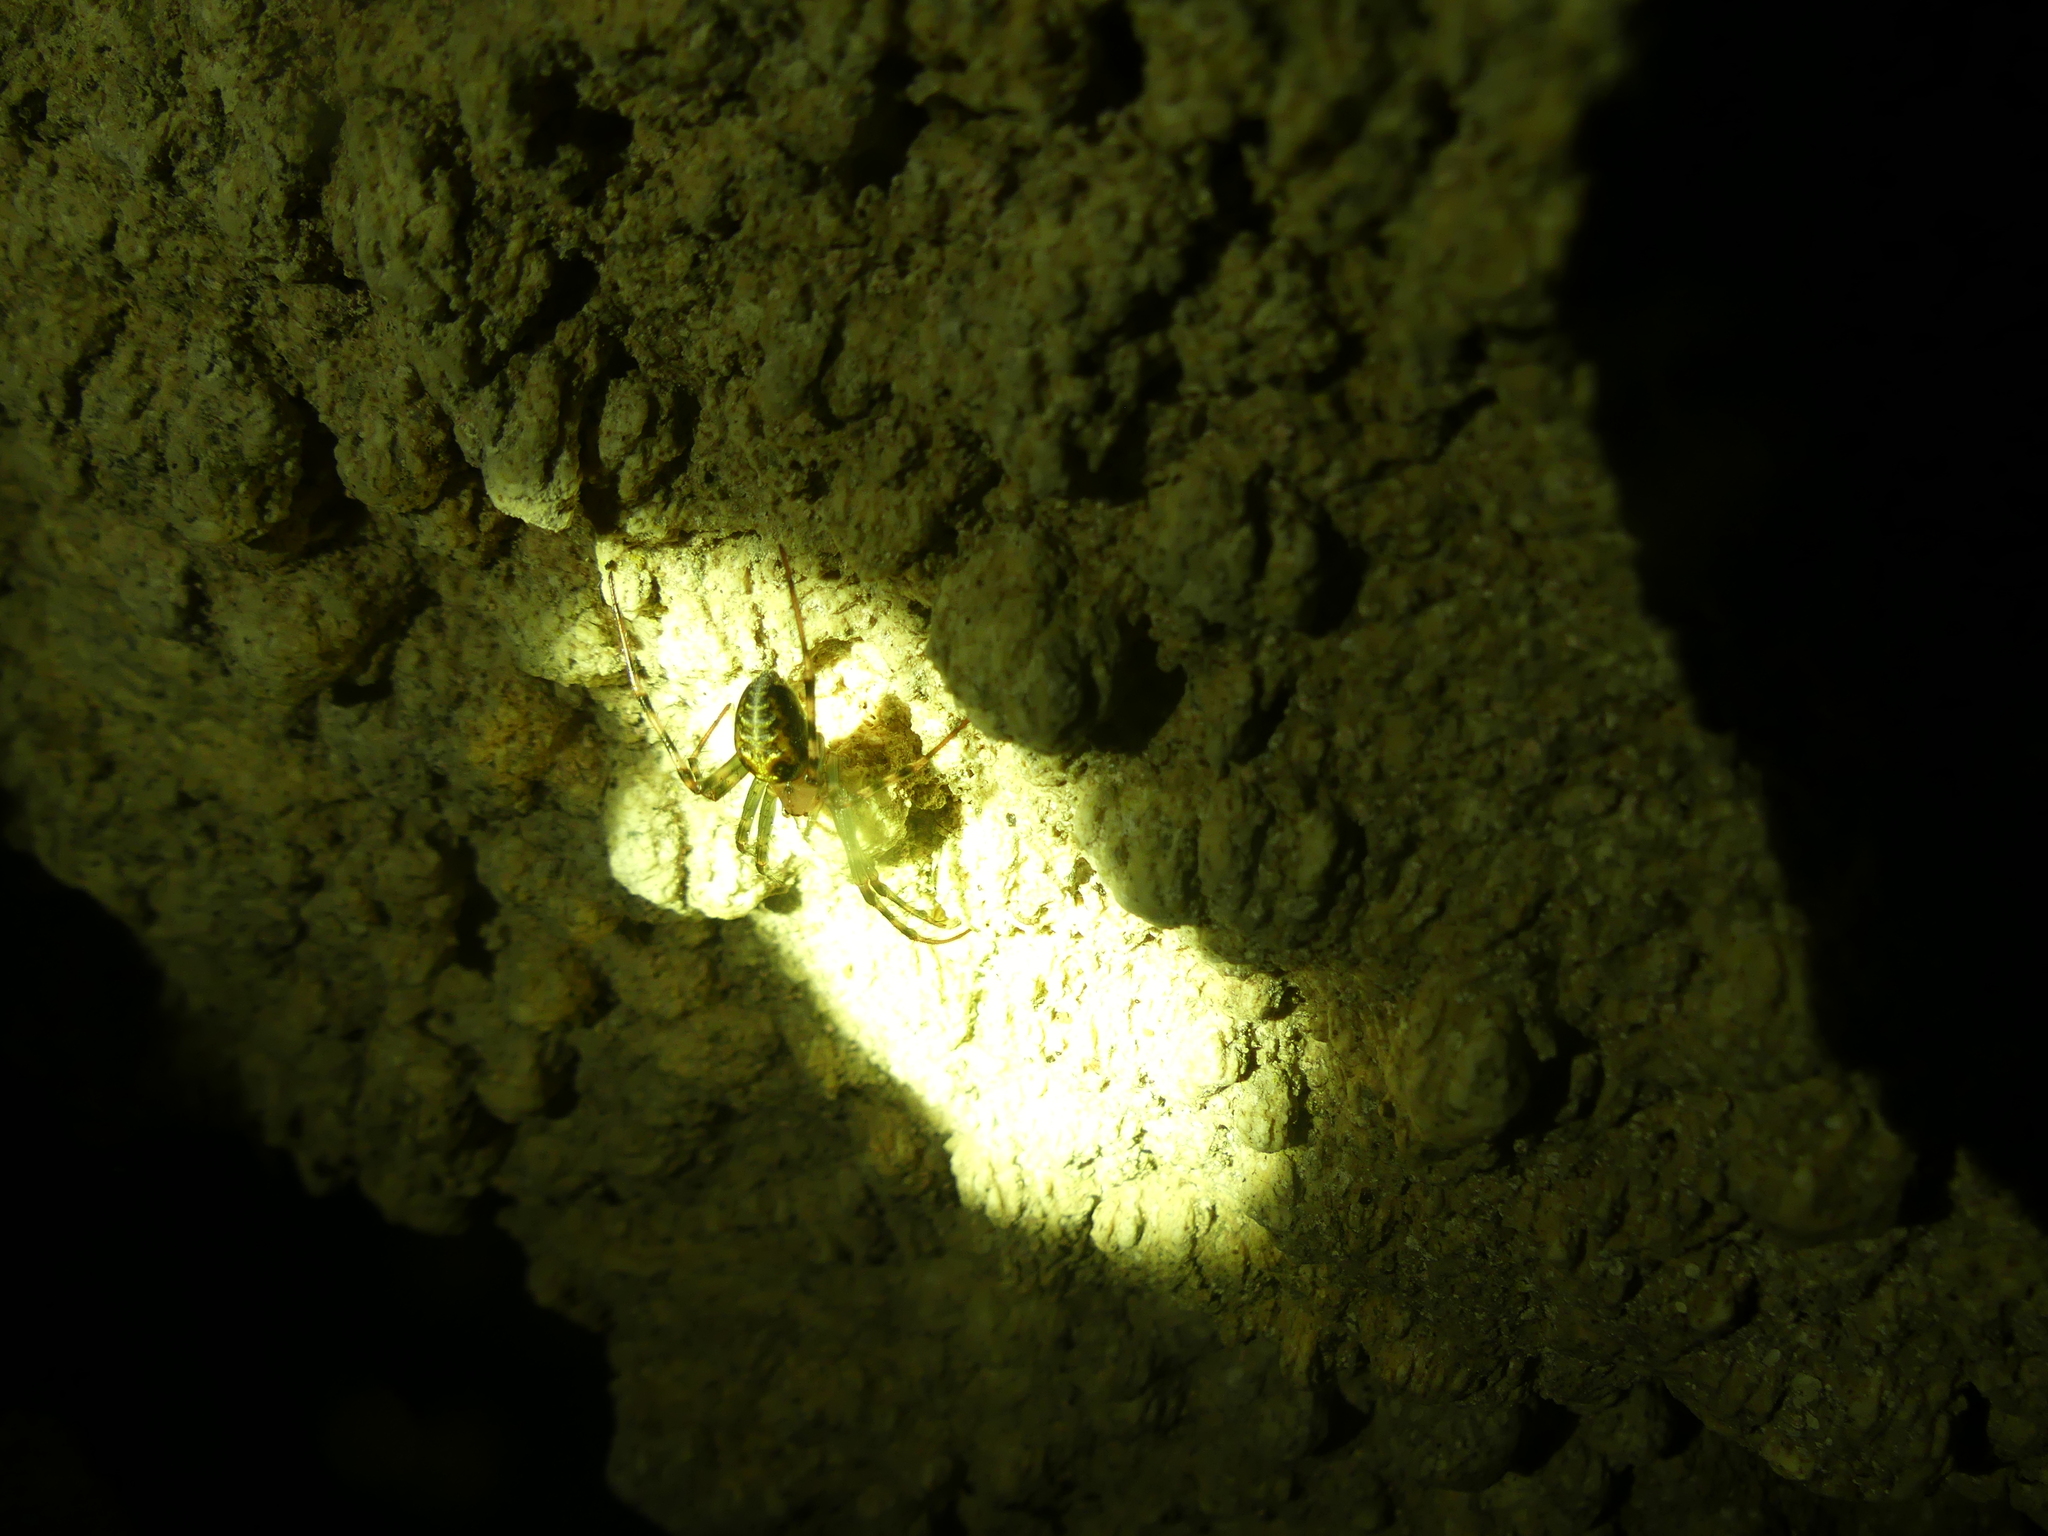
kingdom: Animalia
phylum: Arthropoda
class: Arachnida
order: Araneae
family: Tetragnathidae
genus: Meta
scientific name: Meta menardi
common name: Cave spider
